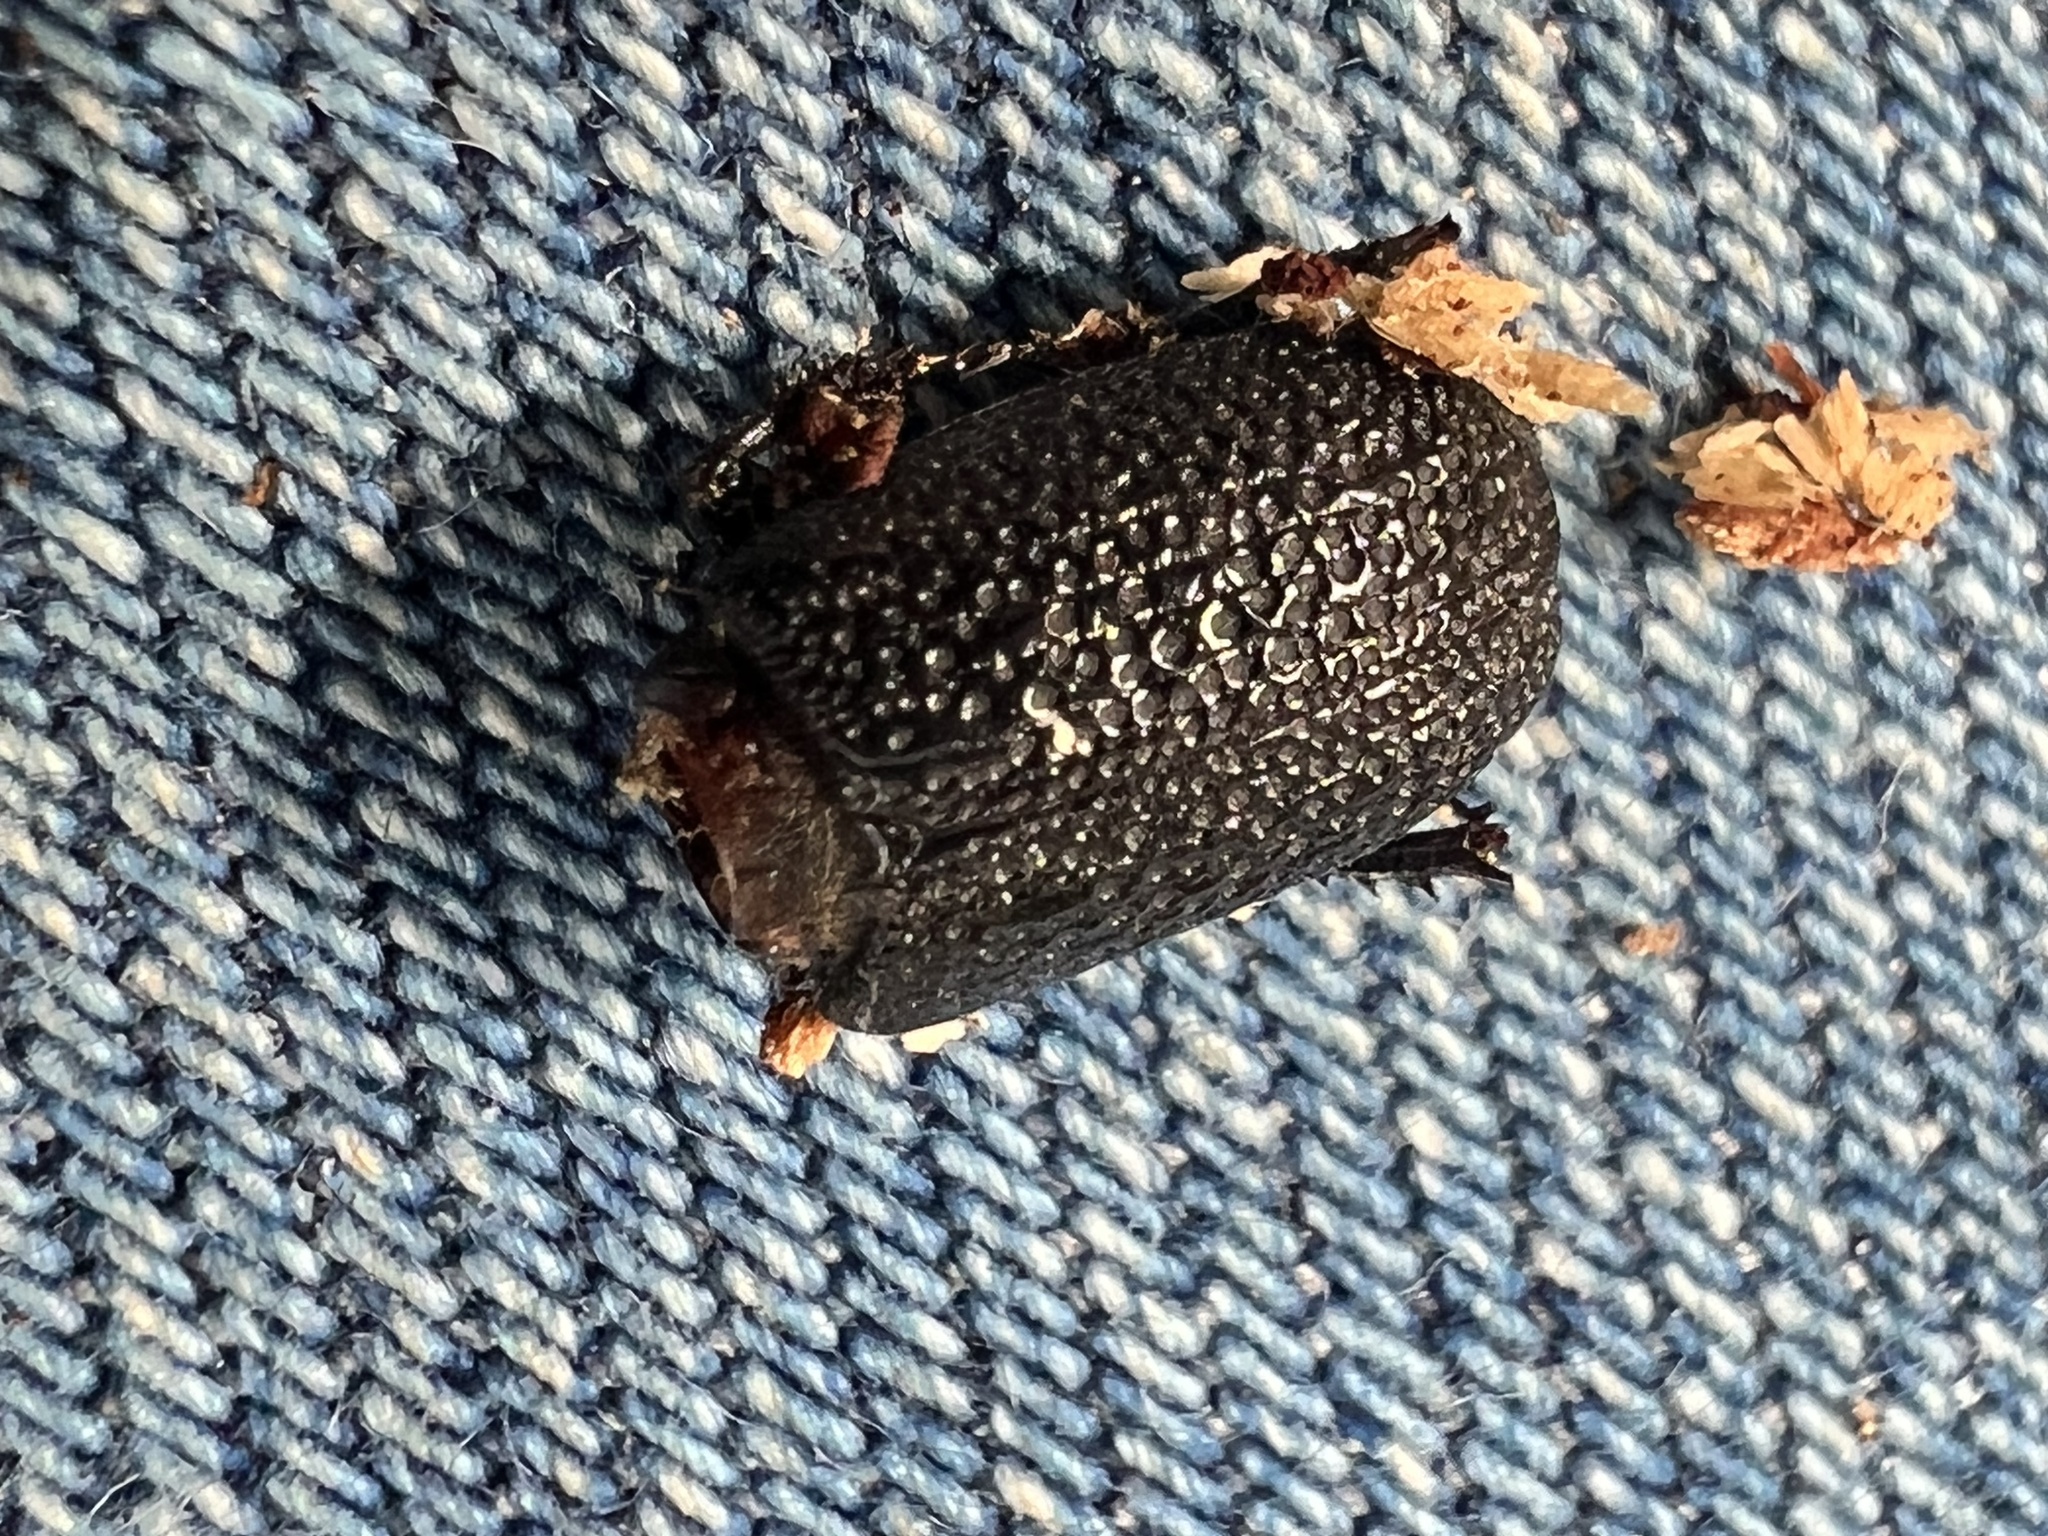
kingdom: Animalia
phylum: Arthropoda
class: Insecta
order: Coleoptera
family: Lucanidae
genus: Sinodendron
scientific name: Sinodendron rugosum
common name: Rugose stag beelte
